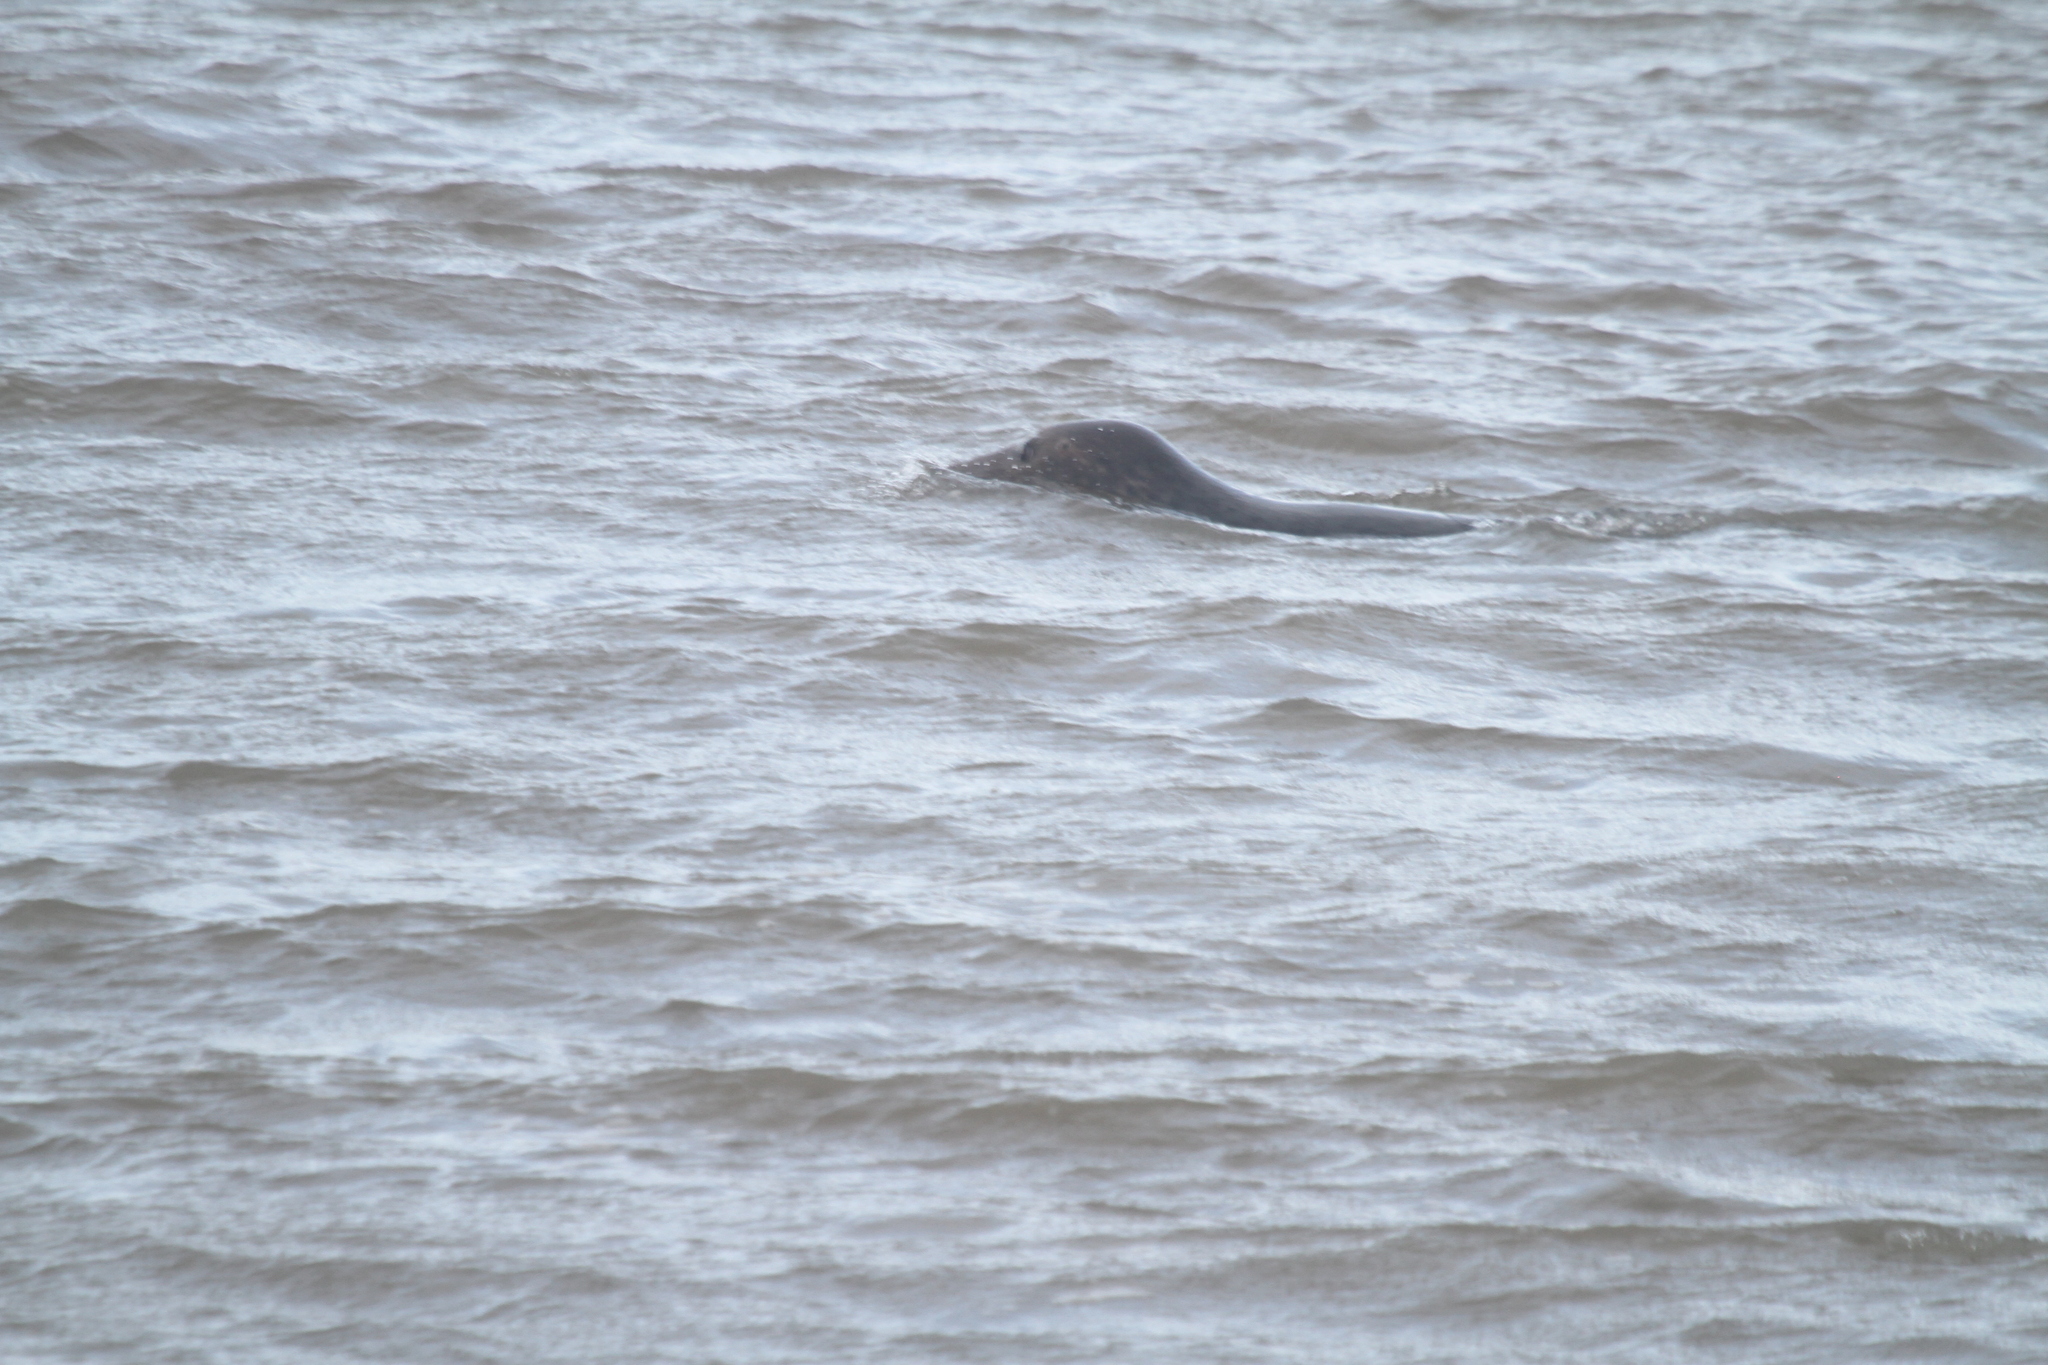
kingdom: Animalia
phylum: Chordata
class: Mammalia
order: Carnivora
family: Phocidae
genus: Halichoerus
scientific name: Halichoerus grypus
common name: Grey seal
